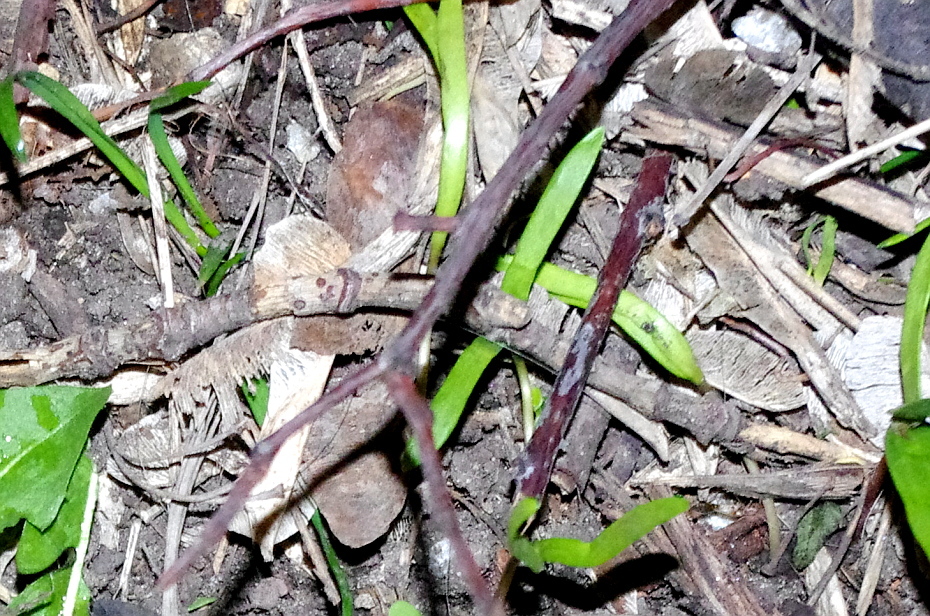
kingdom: Plantae
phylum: Tracheophyta
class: Magnoliopsida
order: Sapindales
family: Sapindaceae
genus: Acer
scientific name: Acer negundo
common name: Ashleaf maple
